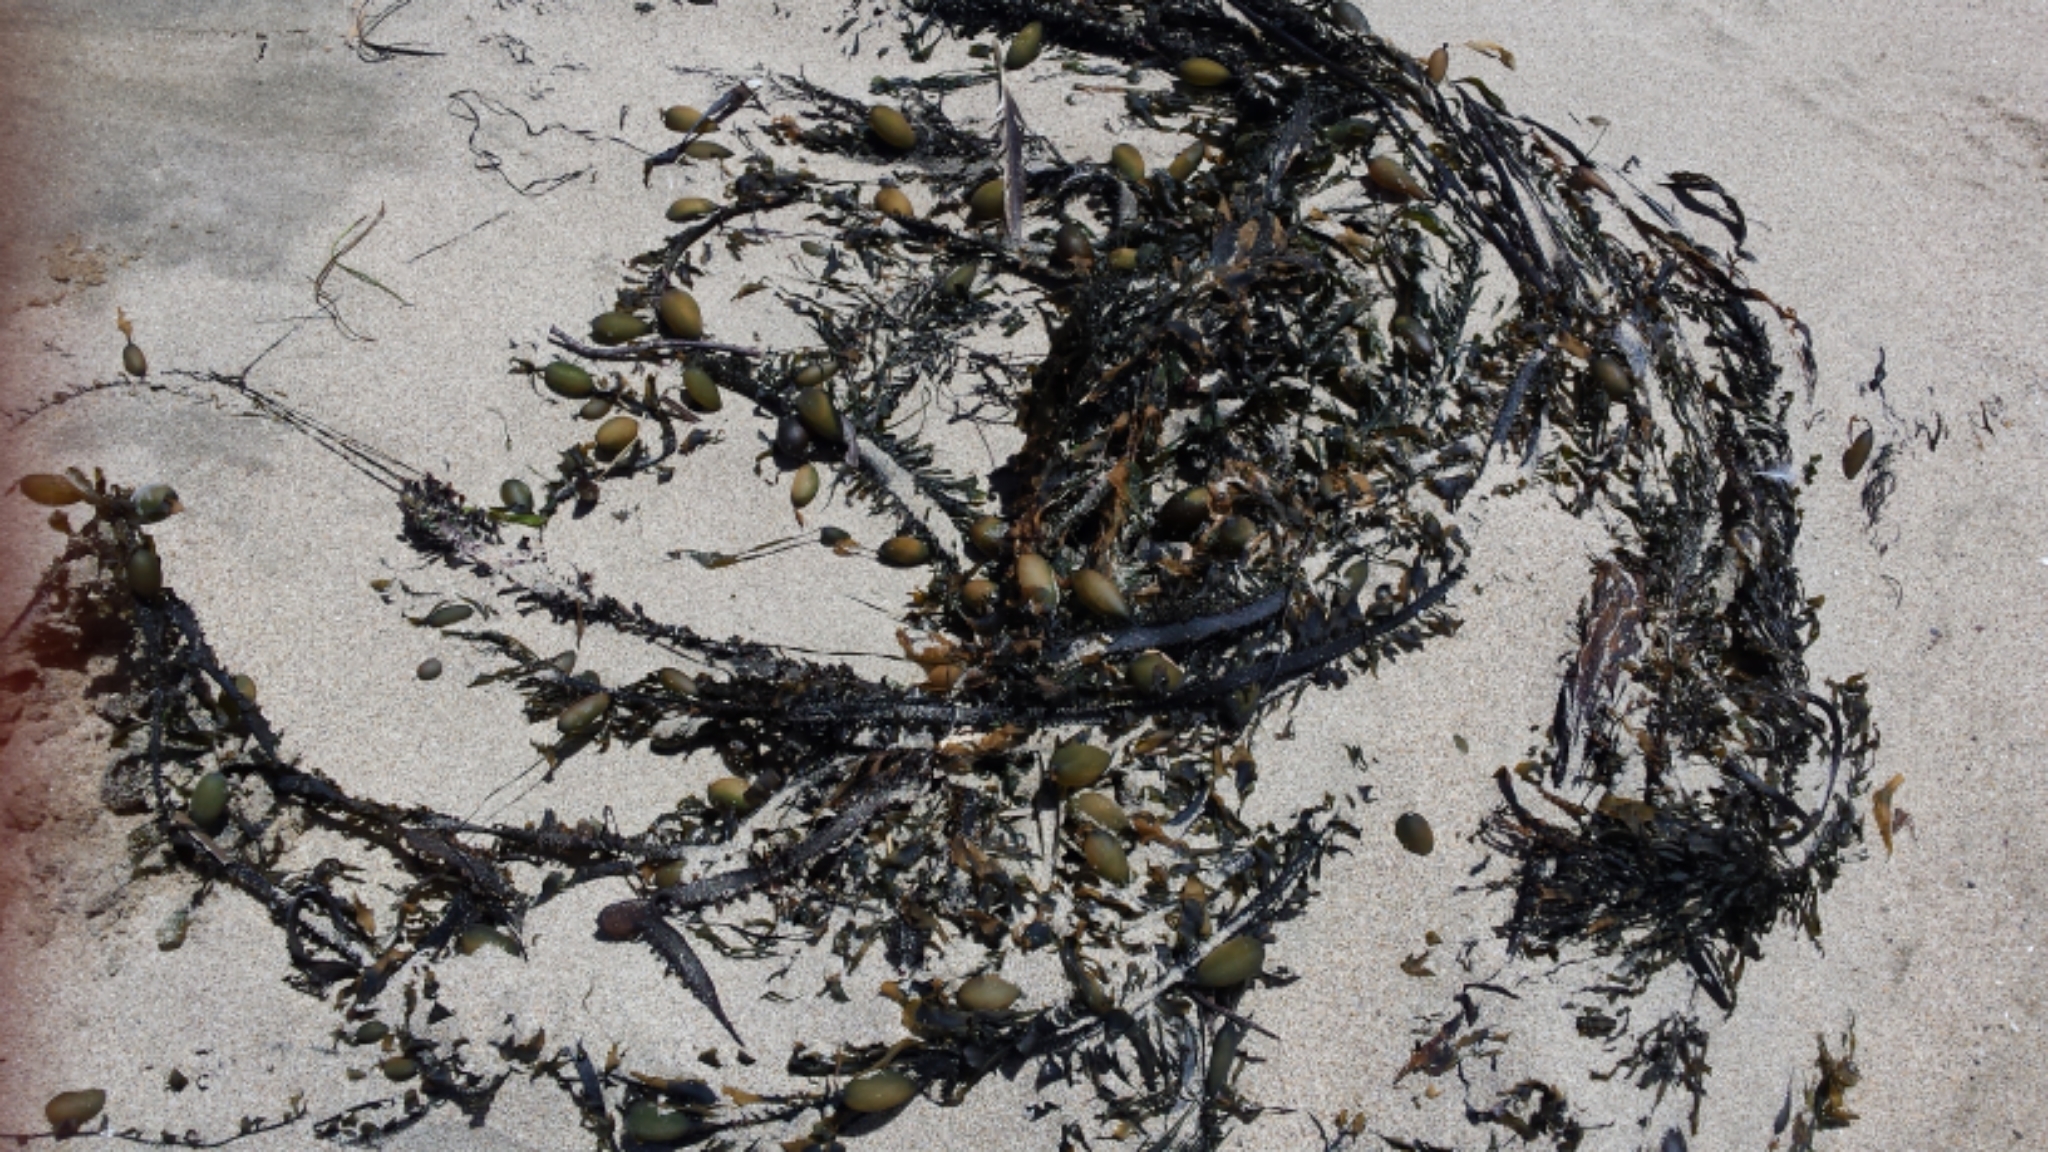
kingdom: Chromista
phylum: Ochrophyta
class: Phaeophyceae
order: Laminariales
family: Lessoniaceae
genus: Egregia
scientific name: Egregia menziesii
